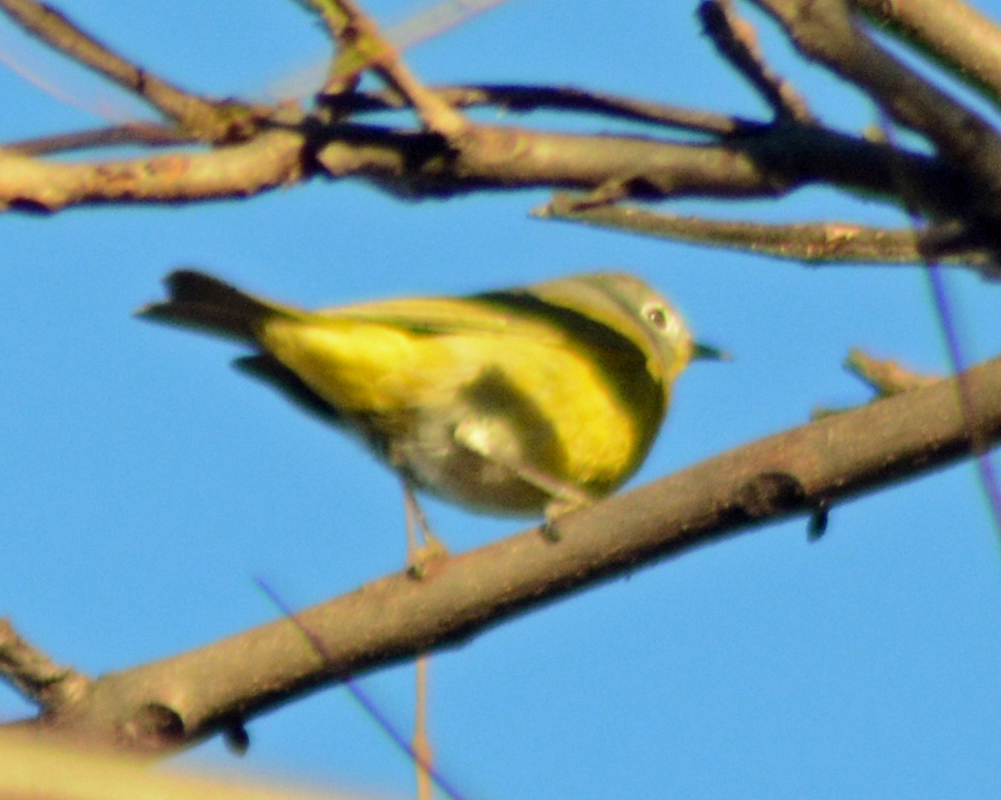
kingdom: Animalia
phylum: Chordata
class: Aves
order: Passeriformes
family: Parulidae
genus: Leiothlypis
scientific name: Leiothlypis ruficapilla
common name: Nashville warbler
